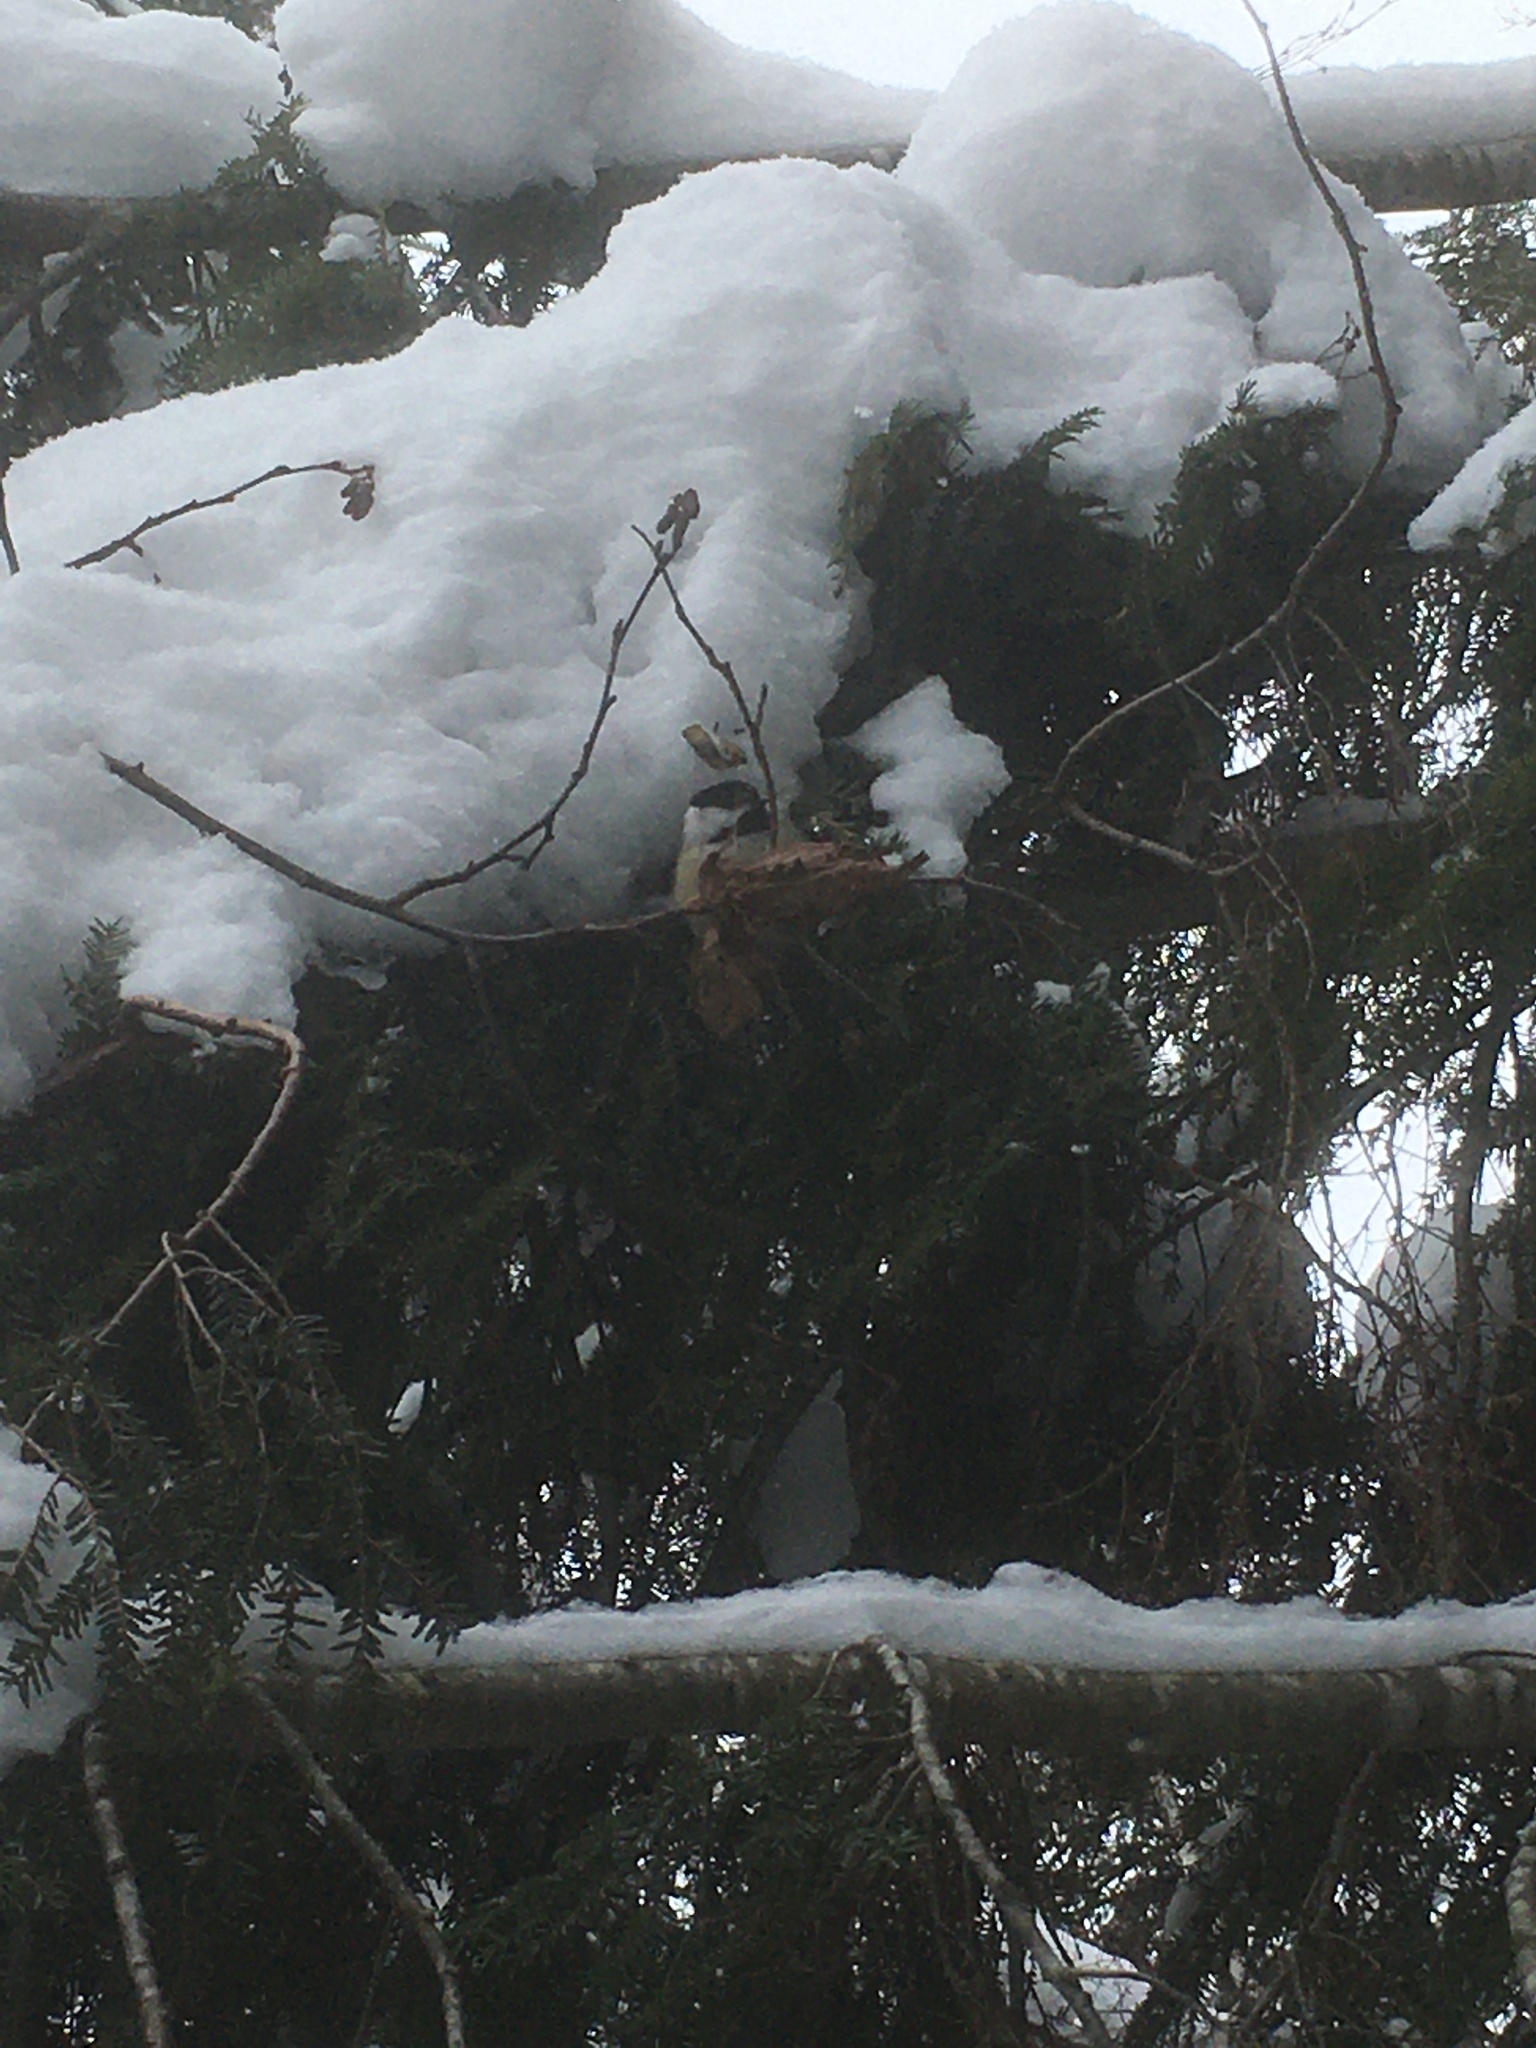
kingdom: Animalia
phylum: Chordata
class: Aves
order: Passeriformes
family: Paridae
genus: Poecile
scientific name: Poecile atricapillus
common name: Black-capped chickadee
